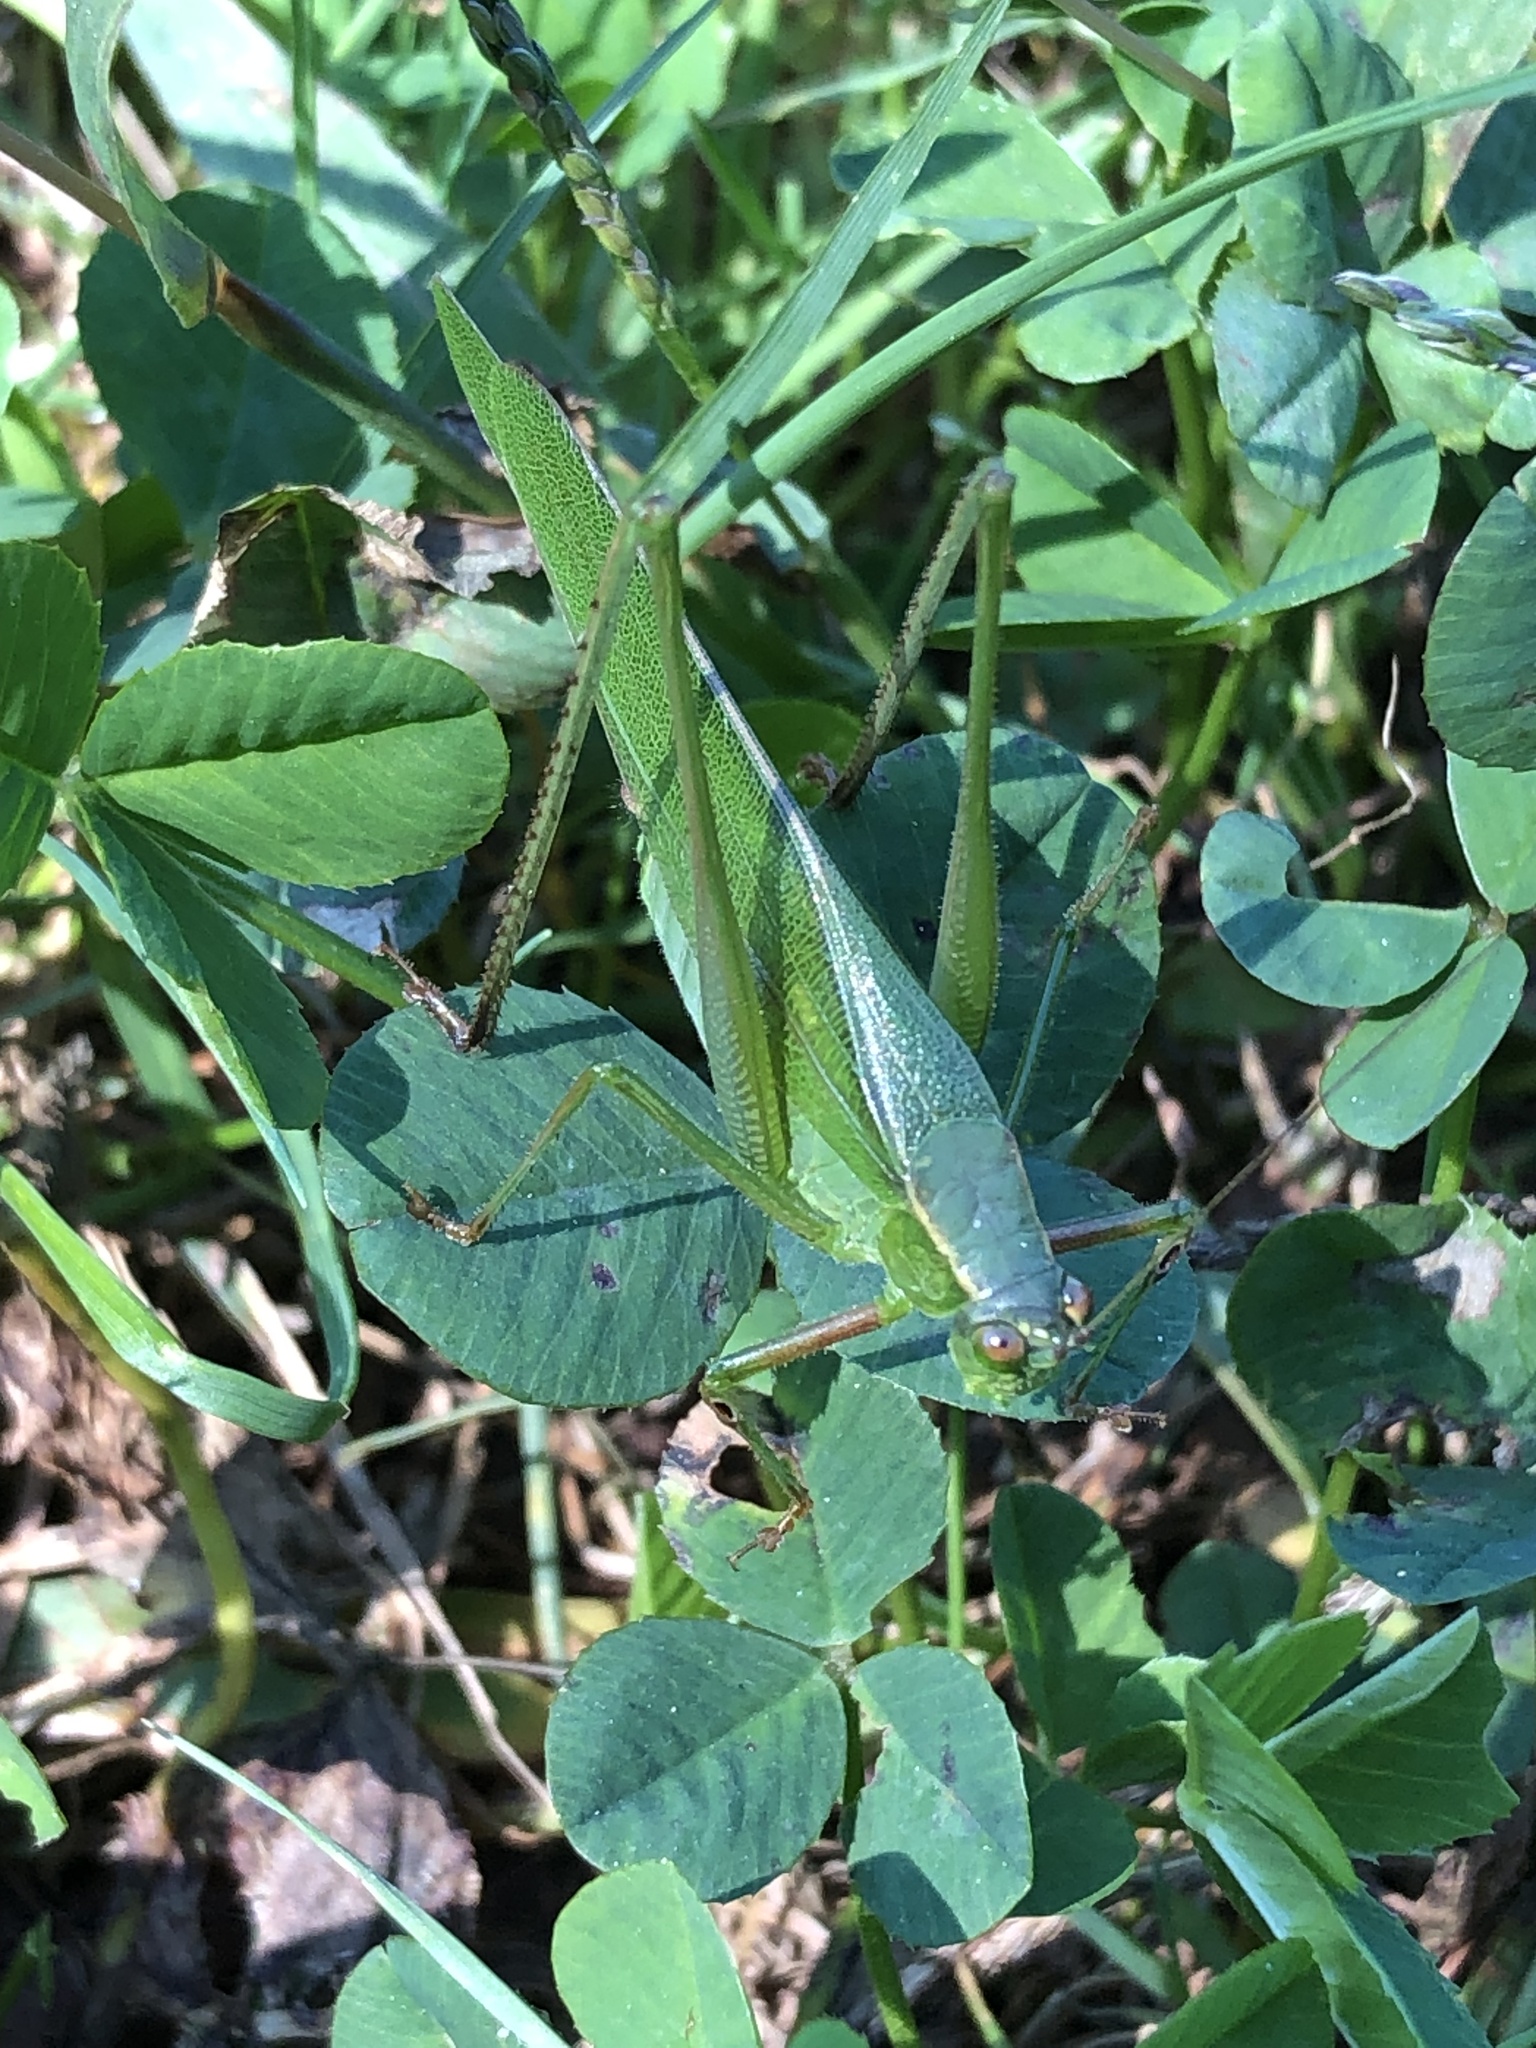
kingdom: Animalia
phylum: Arthropoda
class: Insecta
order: Orthoptera
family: Tettigoniidae
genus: Scudderia
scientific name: Scudderia furcata
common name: Fork-tailed bush katydid
